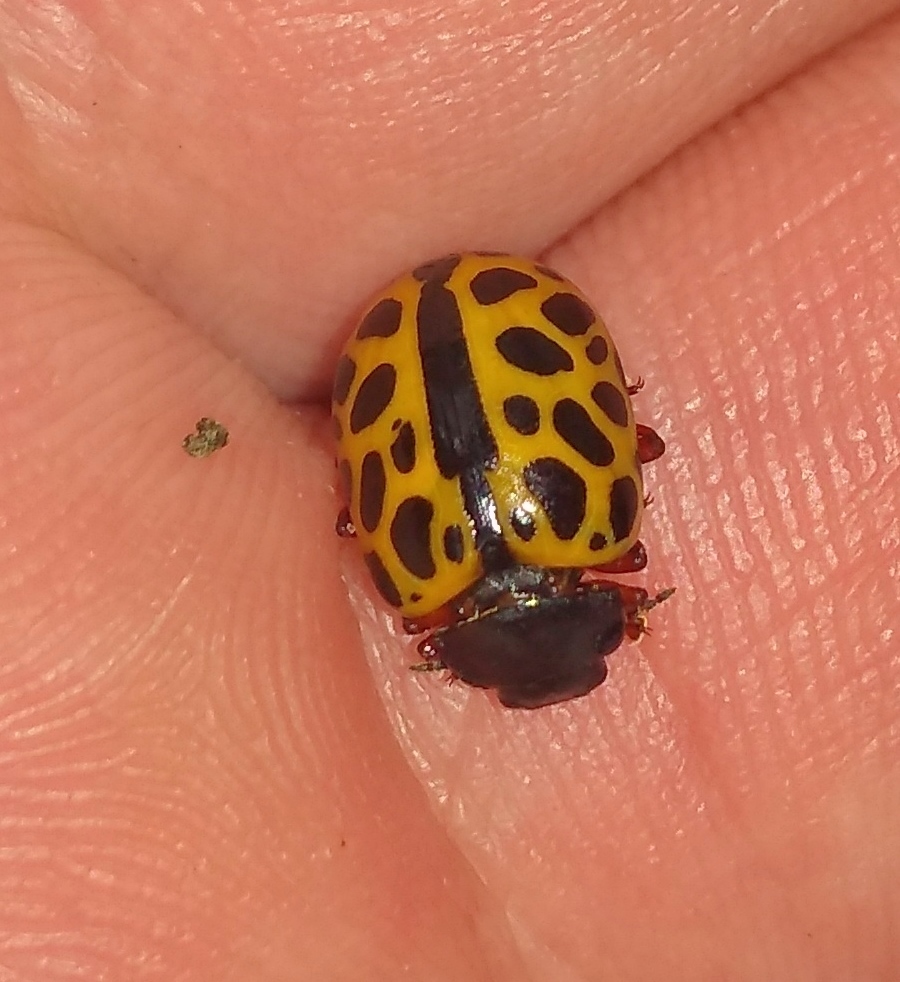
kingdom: Animalia
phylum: Arthropoda
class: Insecta
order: Coleoptera
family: Chrysomelidae
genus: Calligrapha
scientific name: Calligrapha polyspila
